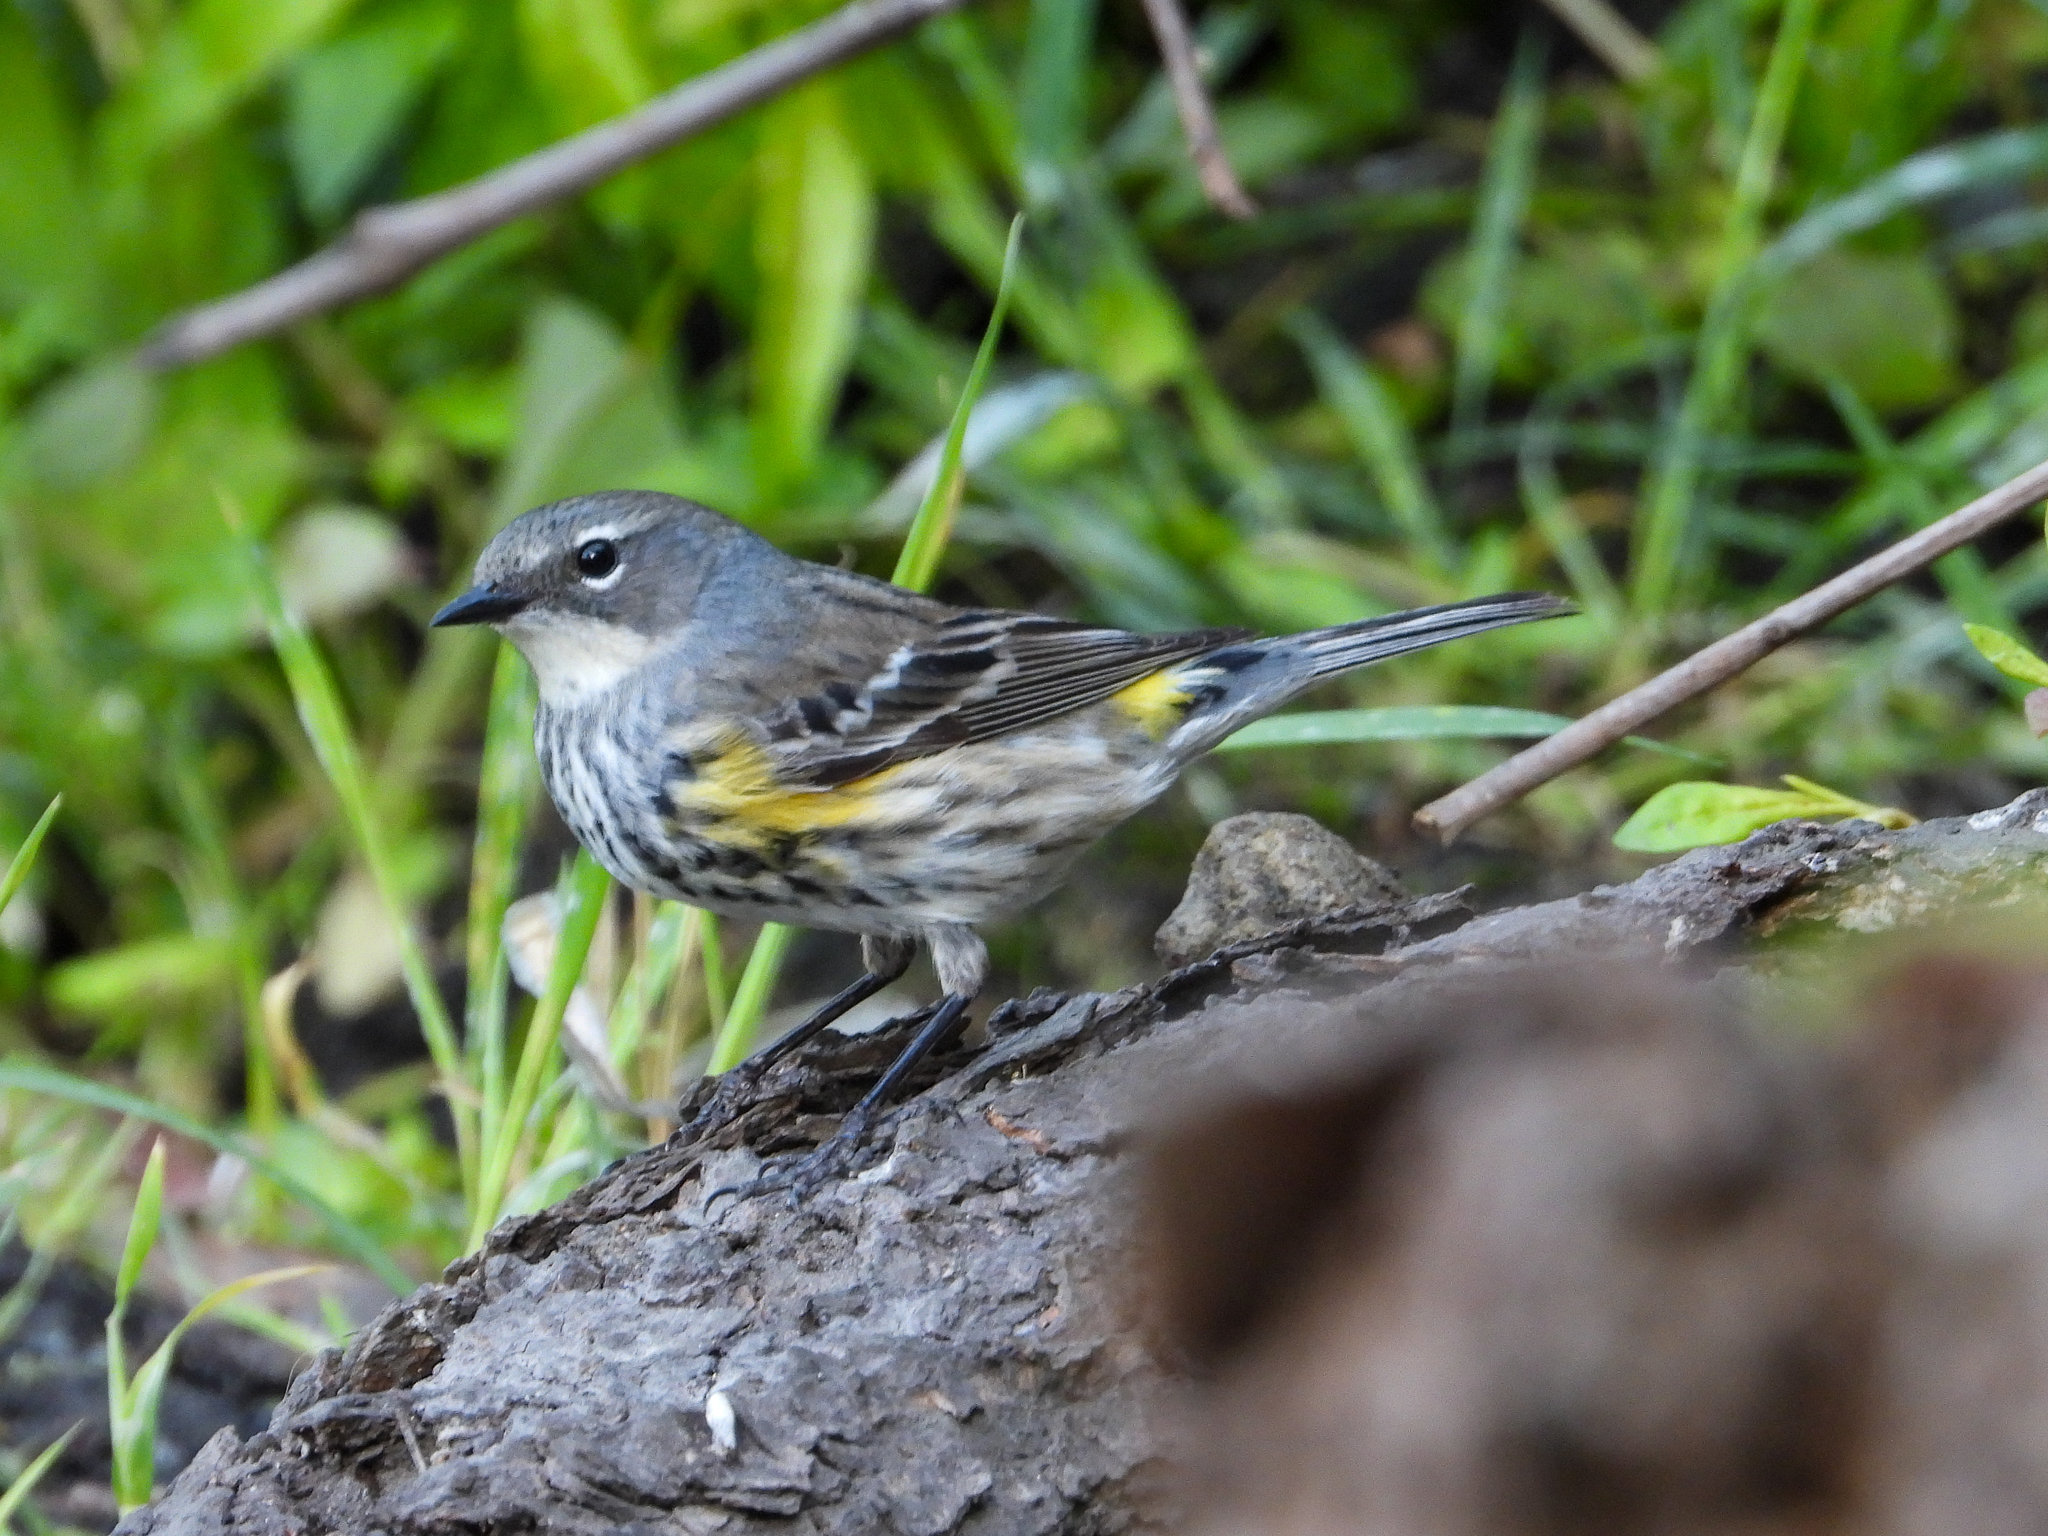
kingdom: Animalia
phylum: Chordata
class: Aves
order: Passeriformes
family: Parulidae
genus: Setophaga
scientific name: Setophaga coronata
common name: Myrtle warbler
